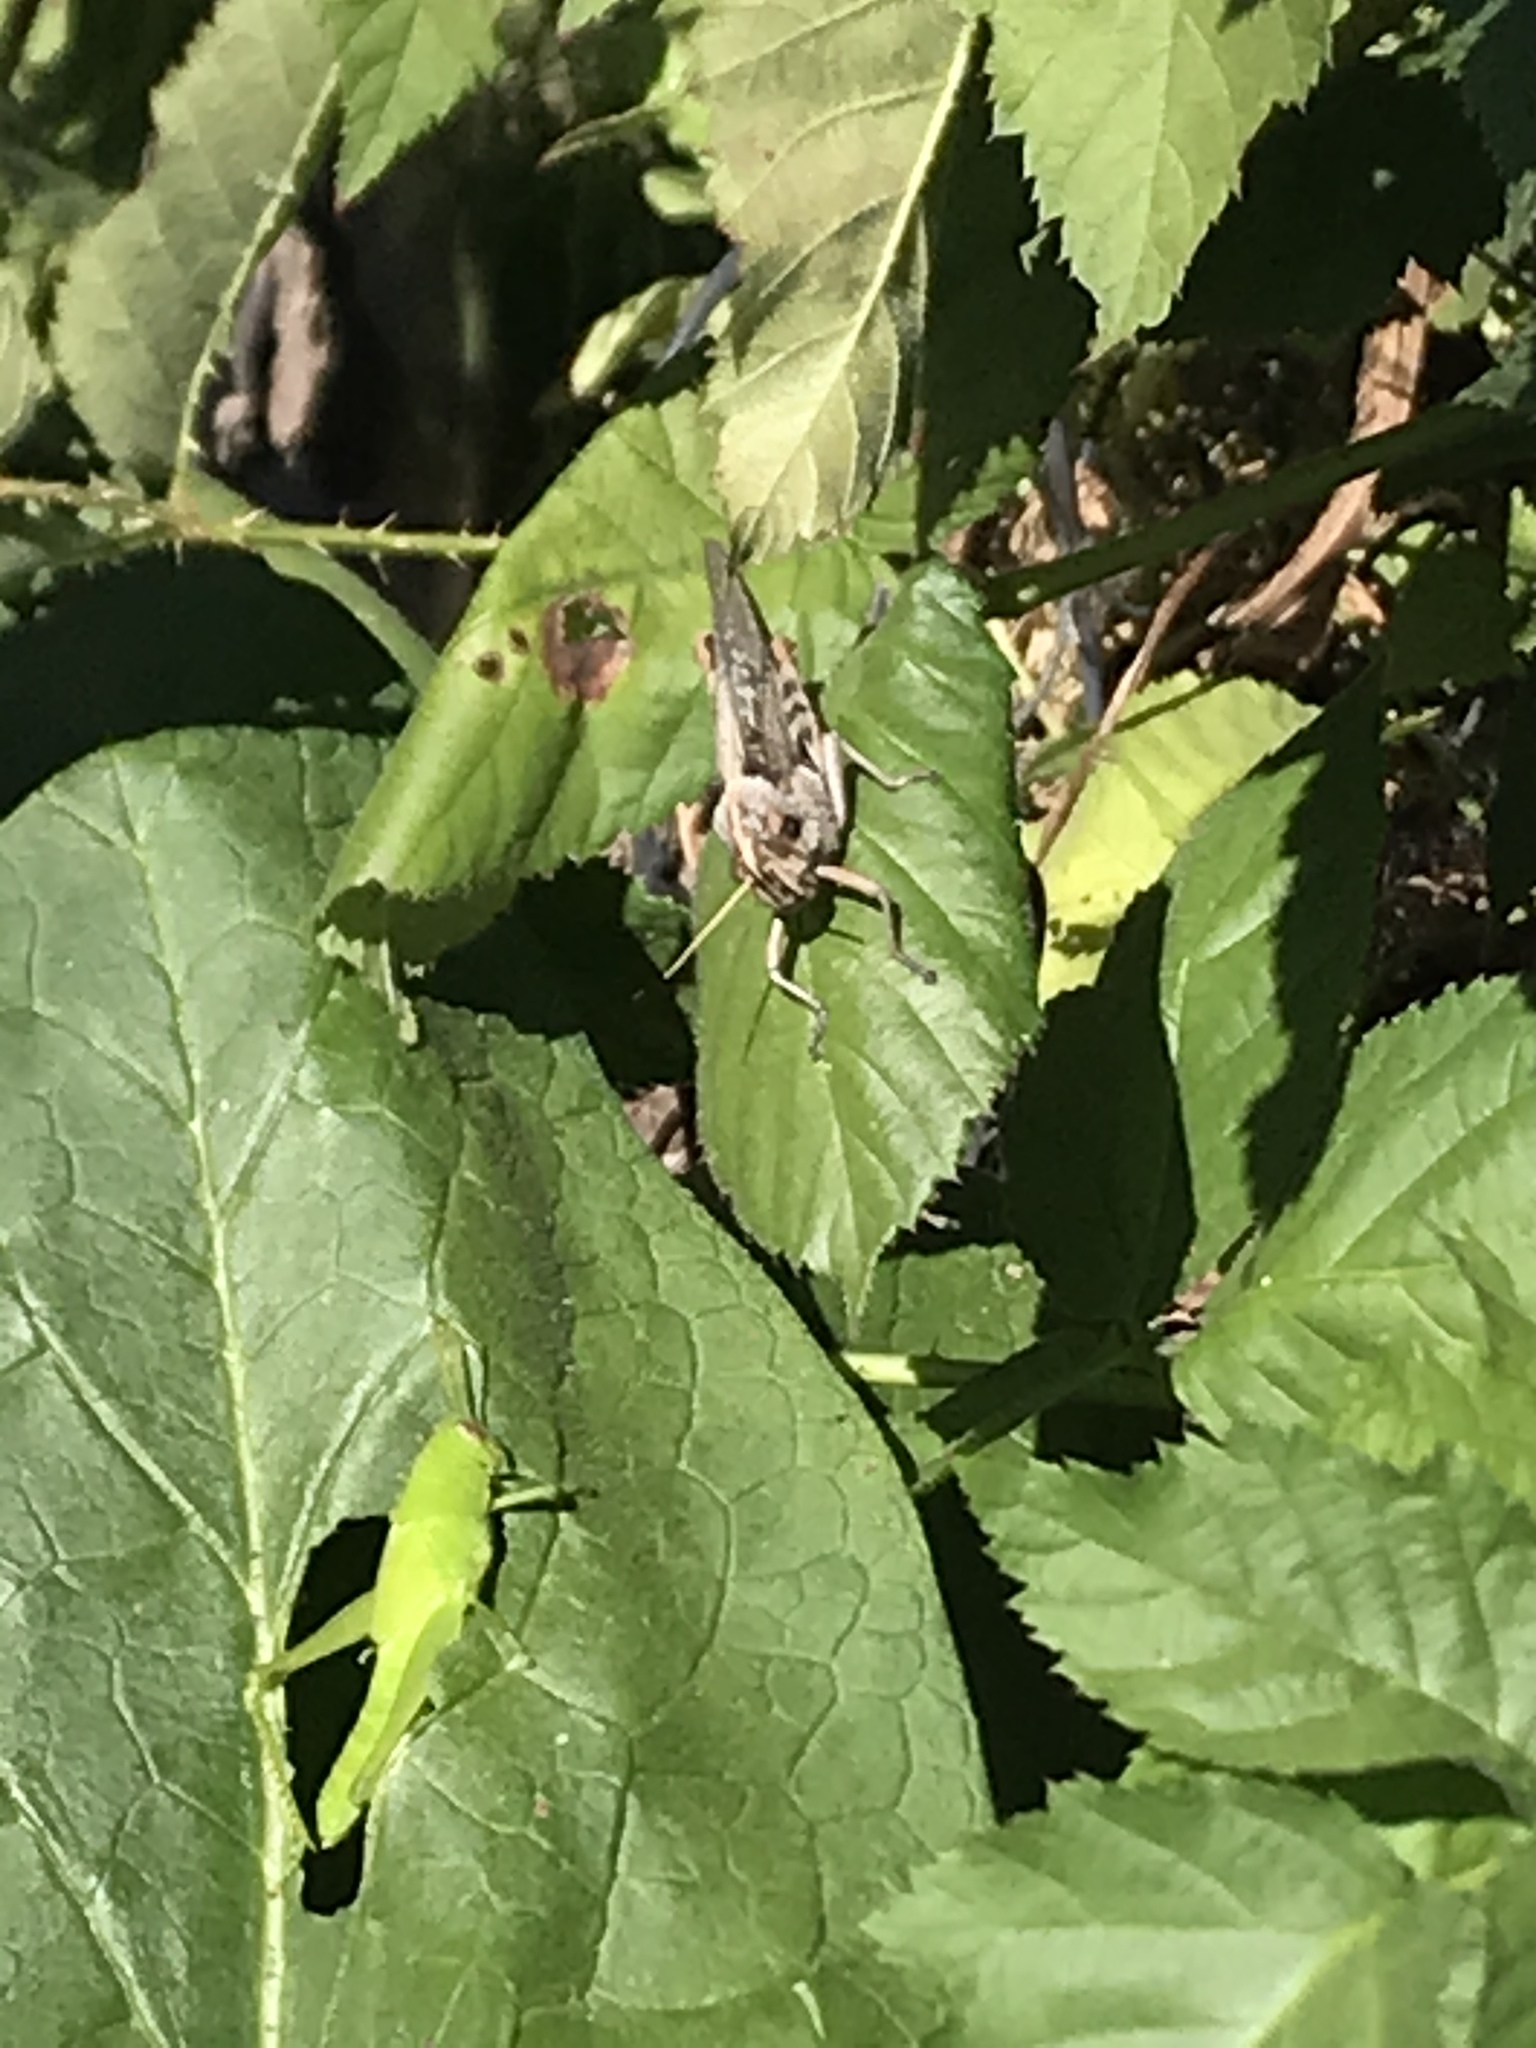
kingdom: Animalia
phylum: Arthropoda
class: Insecta
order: Orthoptera
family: Acrididae
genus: Schistocerca
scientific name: Schistocerca nitens
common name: Vagrant grasshopper
